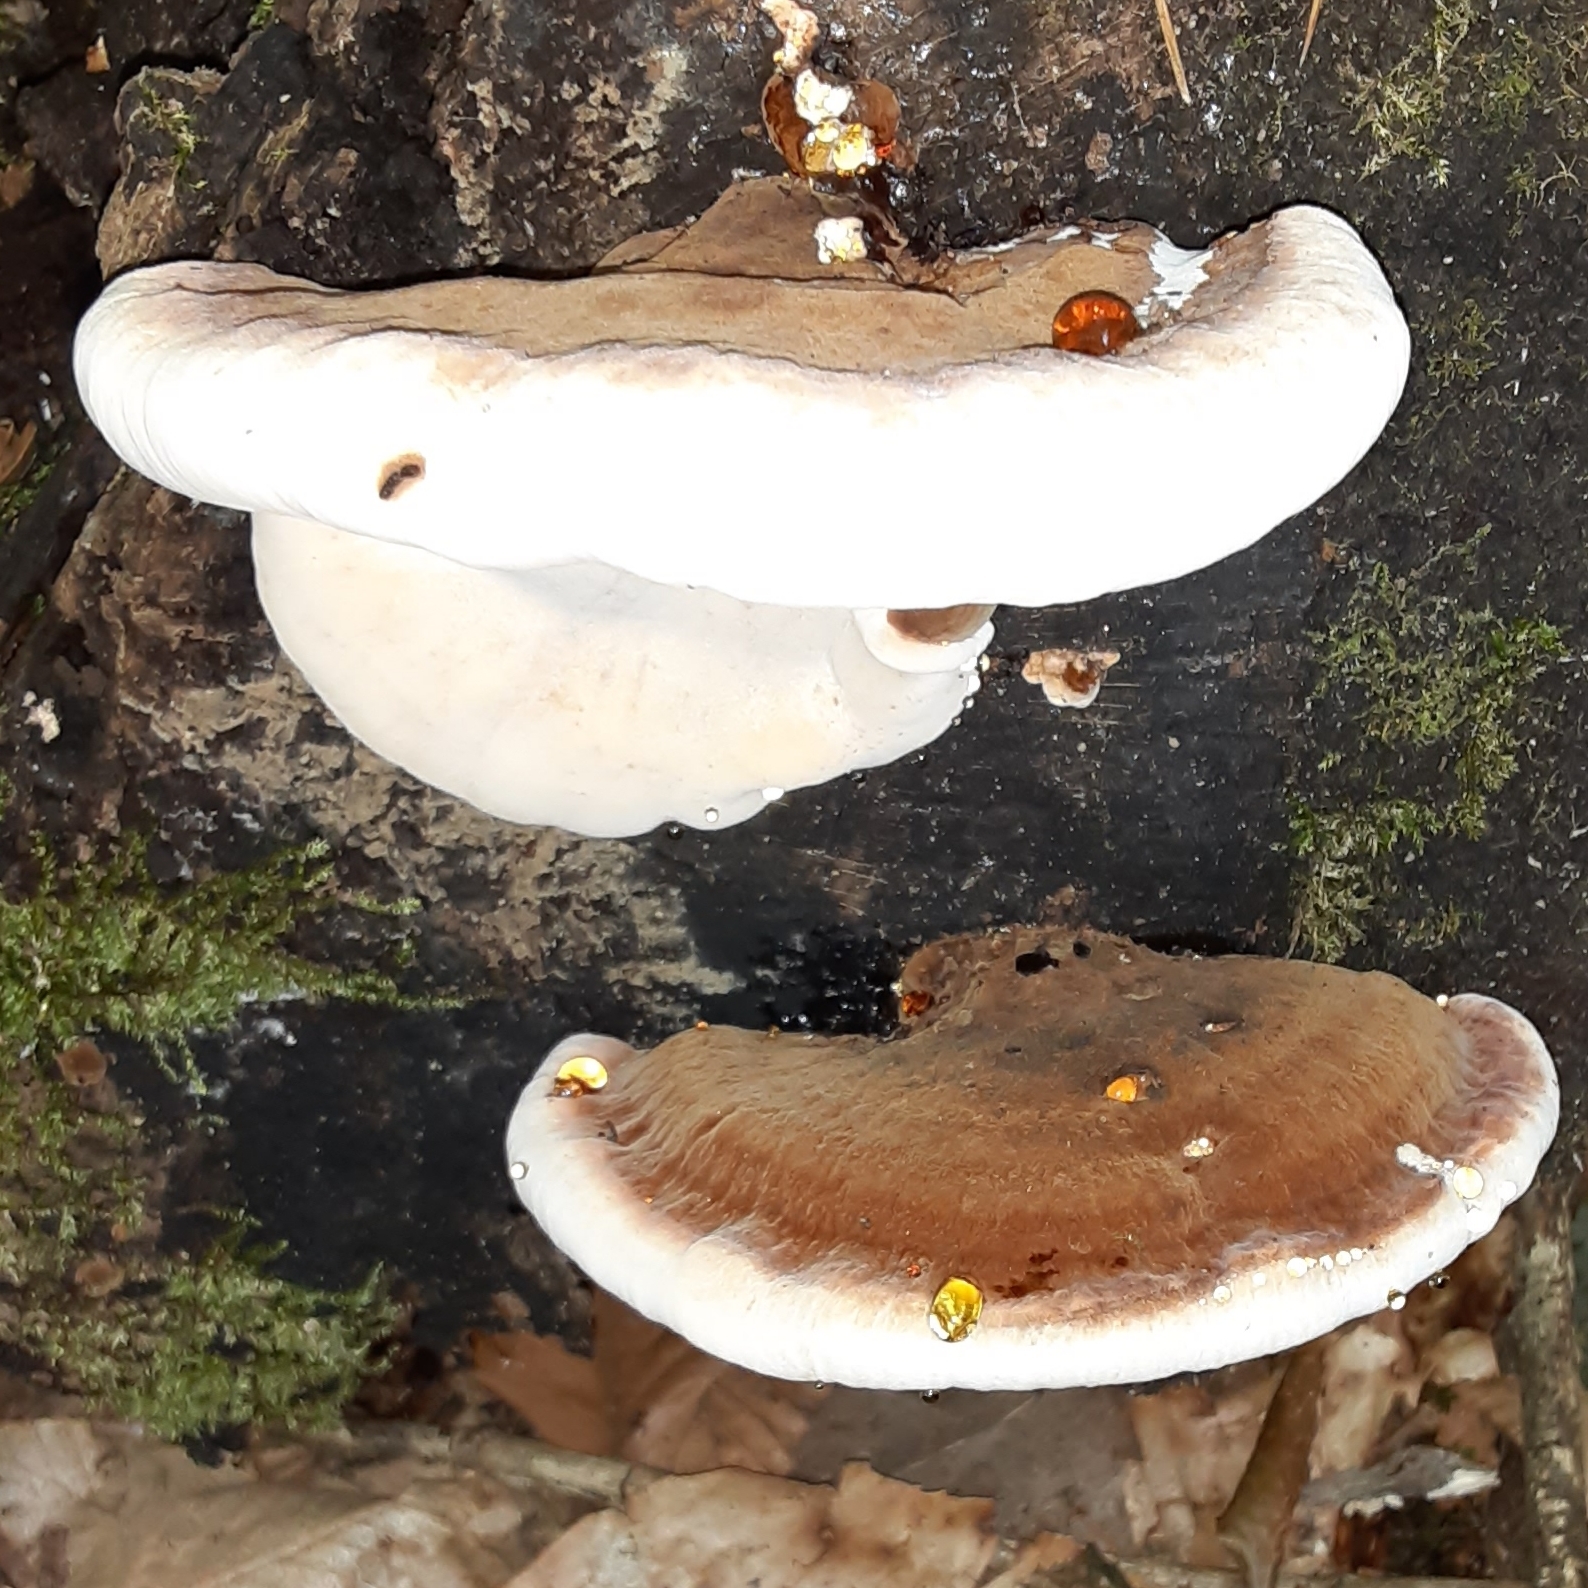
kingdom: Fungi
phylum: Basidiomycota
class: Agaricomycetes
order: Polyporales
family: Ischnodermataceae
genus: Ischnoderma
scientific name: Ischnoderma resinosum
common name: Resinous polypore
